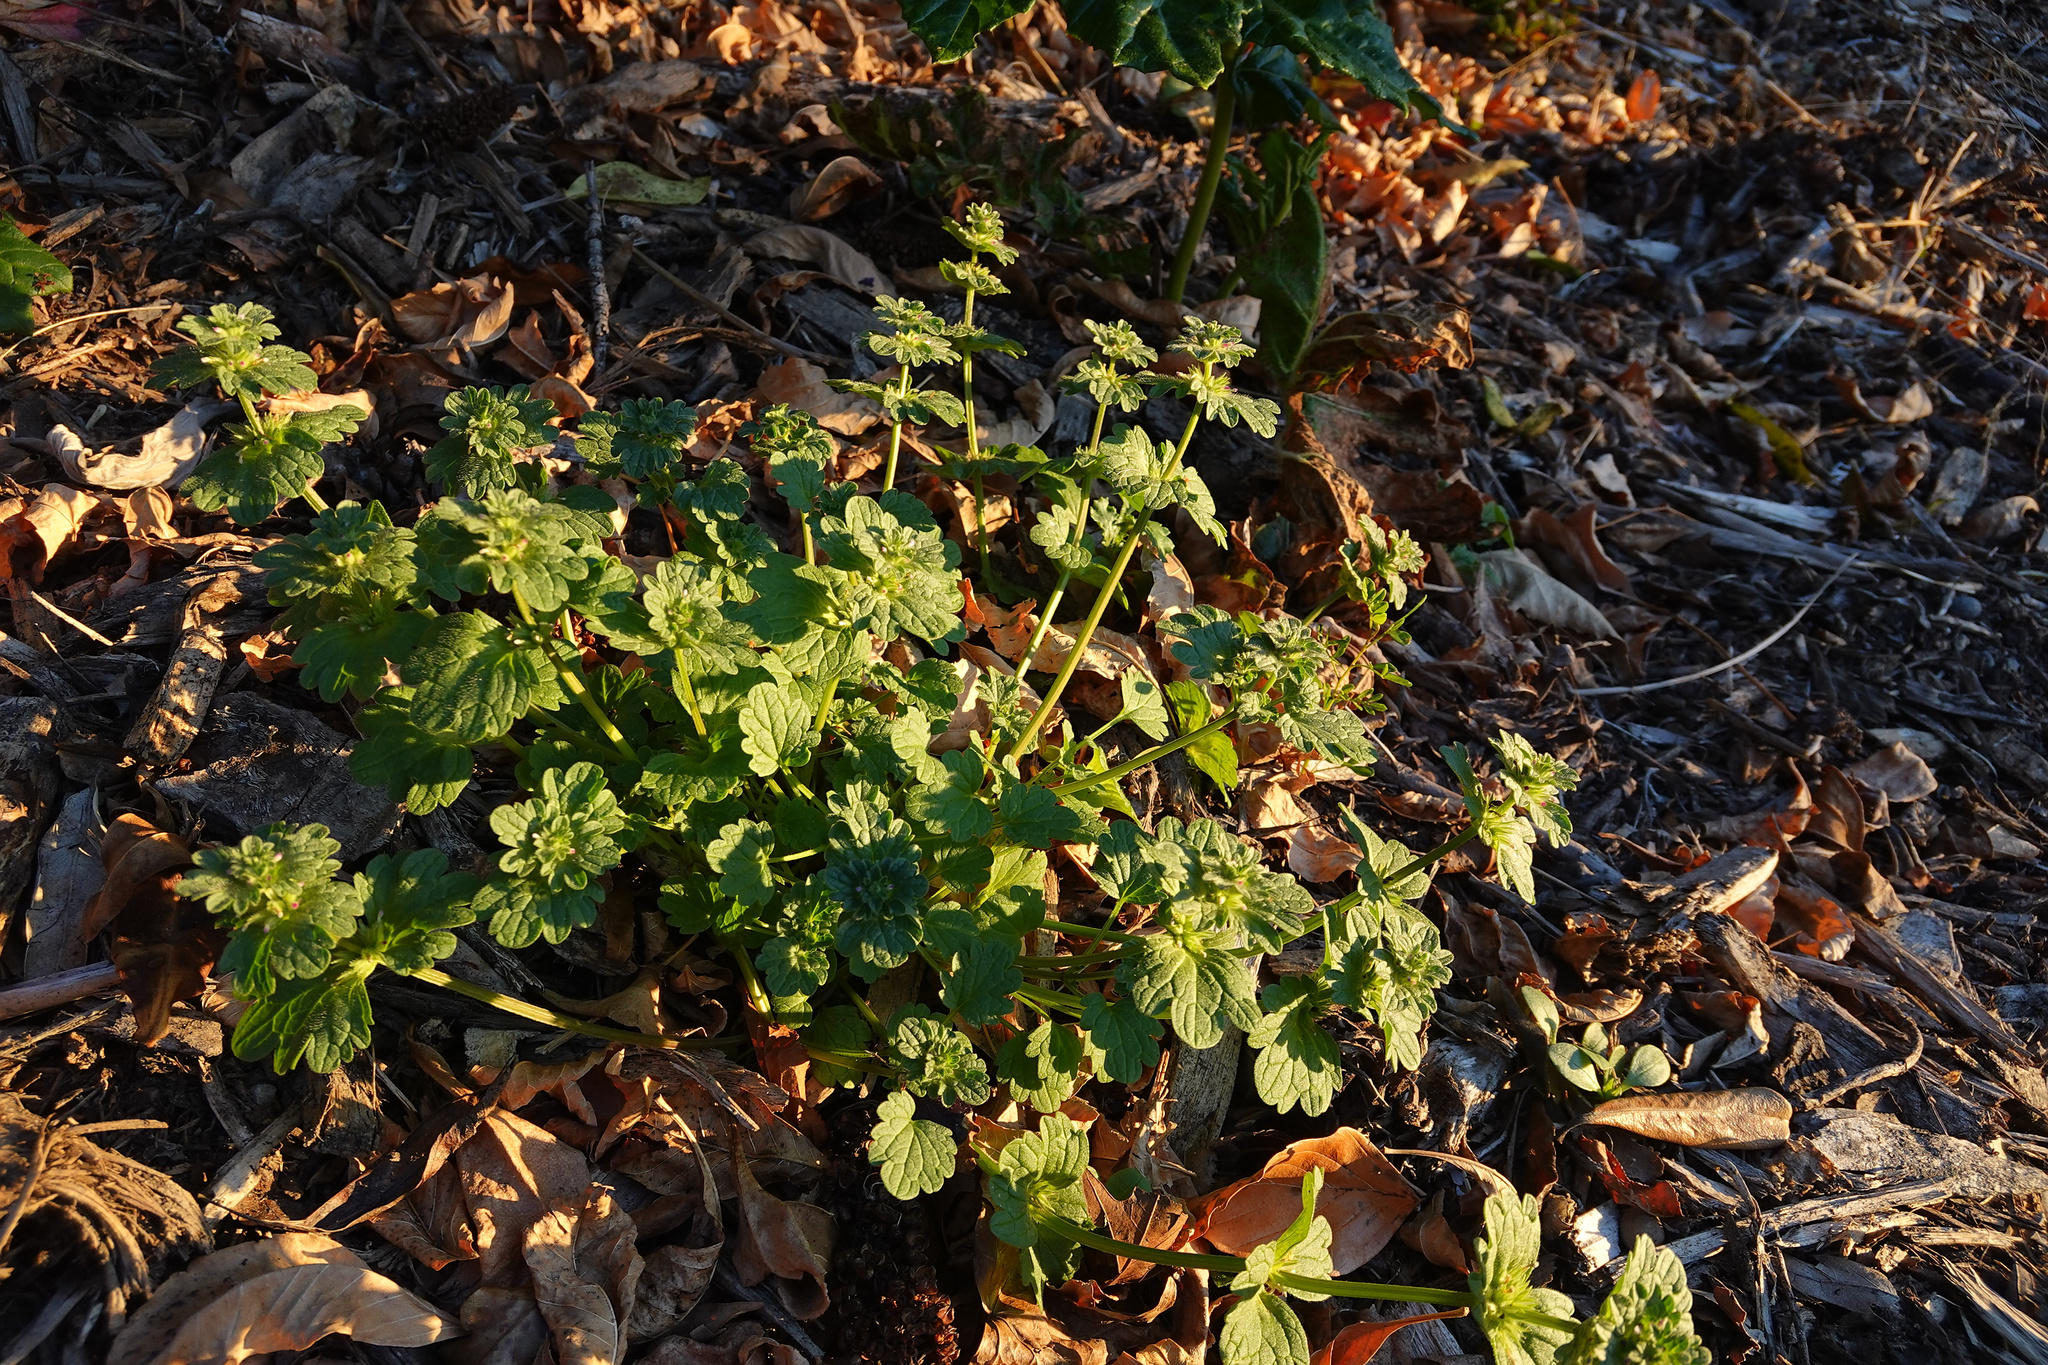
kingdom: Plantae
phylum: Tracheophyta
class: Magnoliopsida
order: Lamiales
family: Lamiaceae
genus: Lamium
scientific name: Lamium amplexicaule
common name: Henbit dead-nettle
